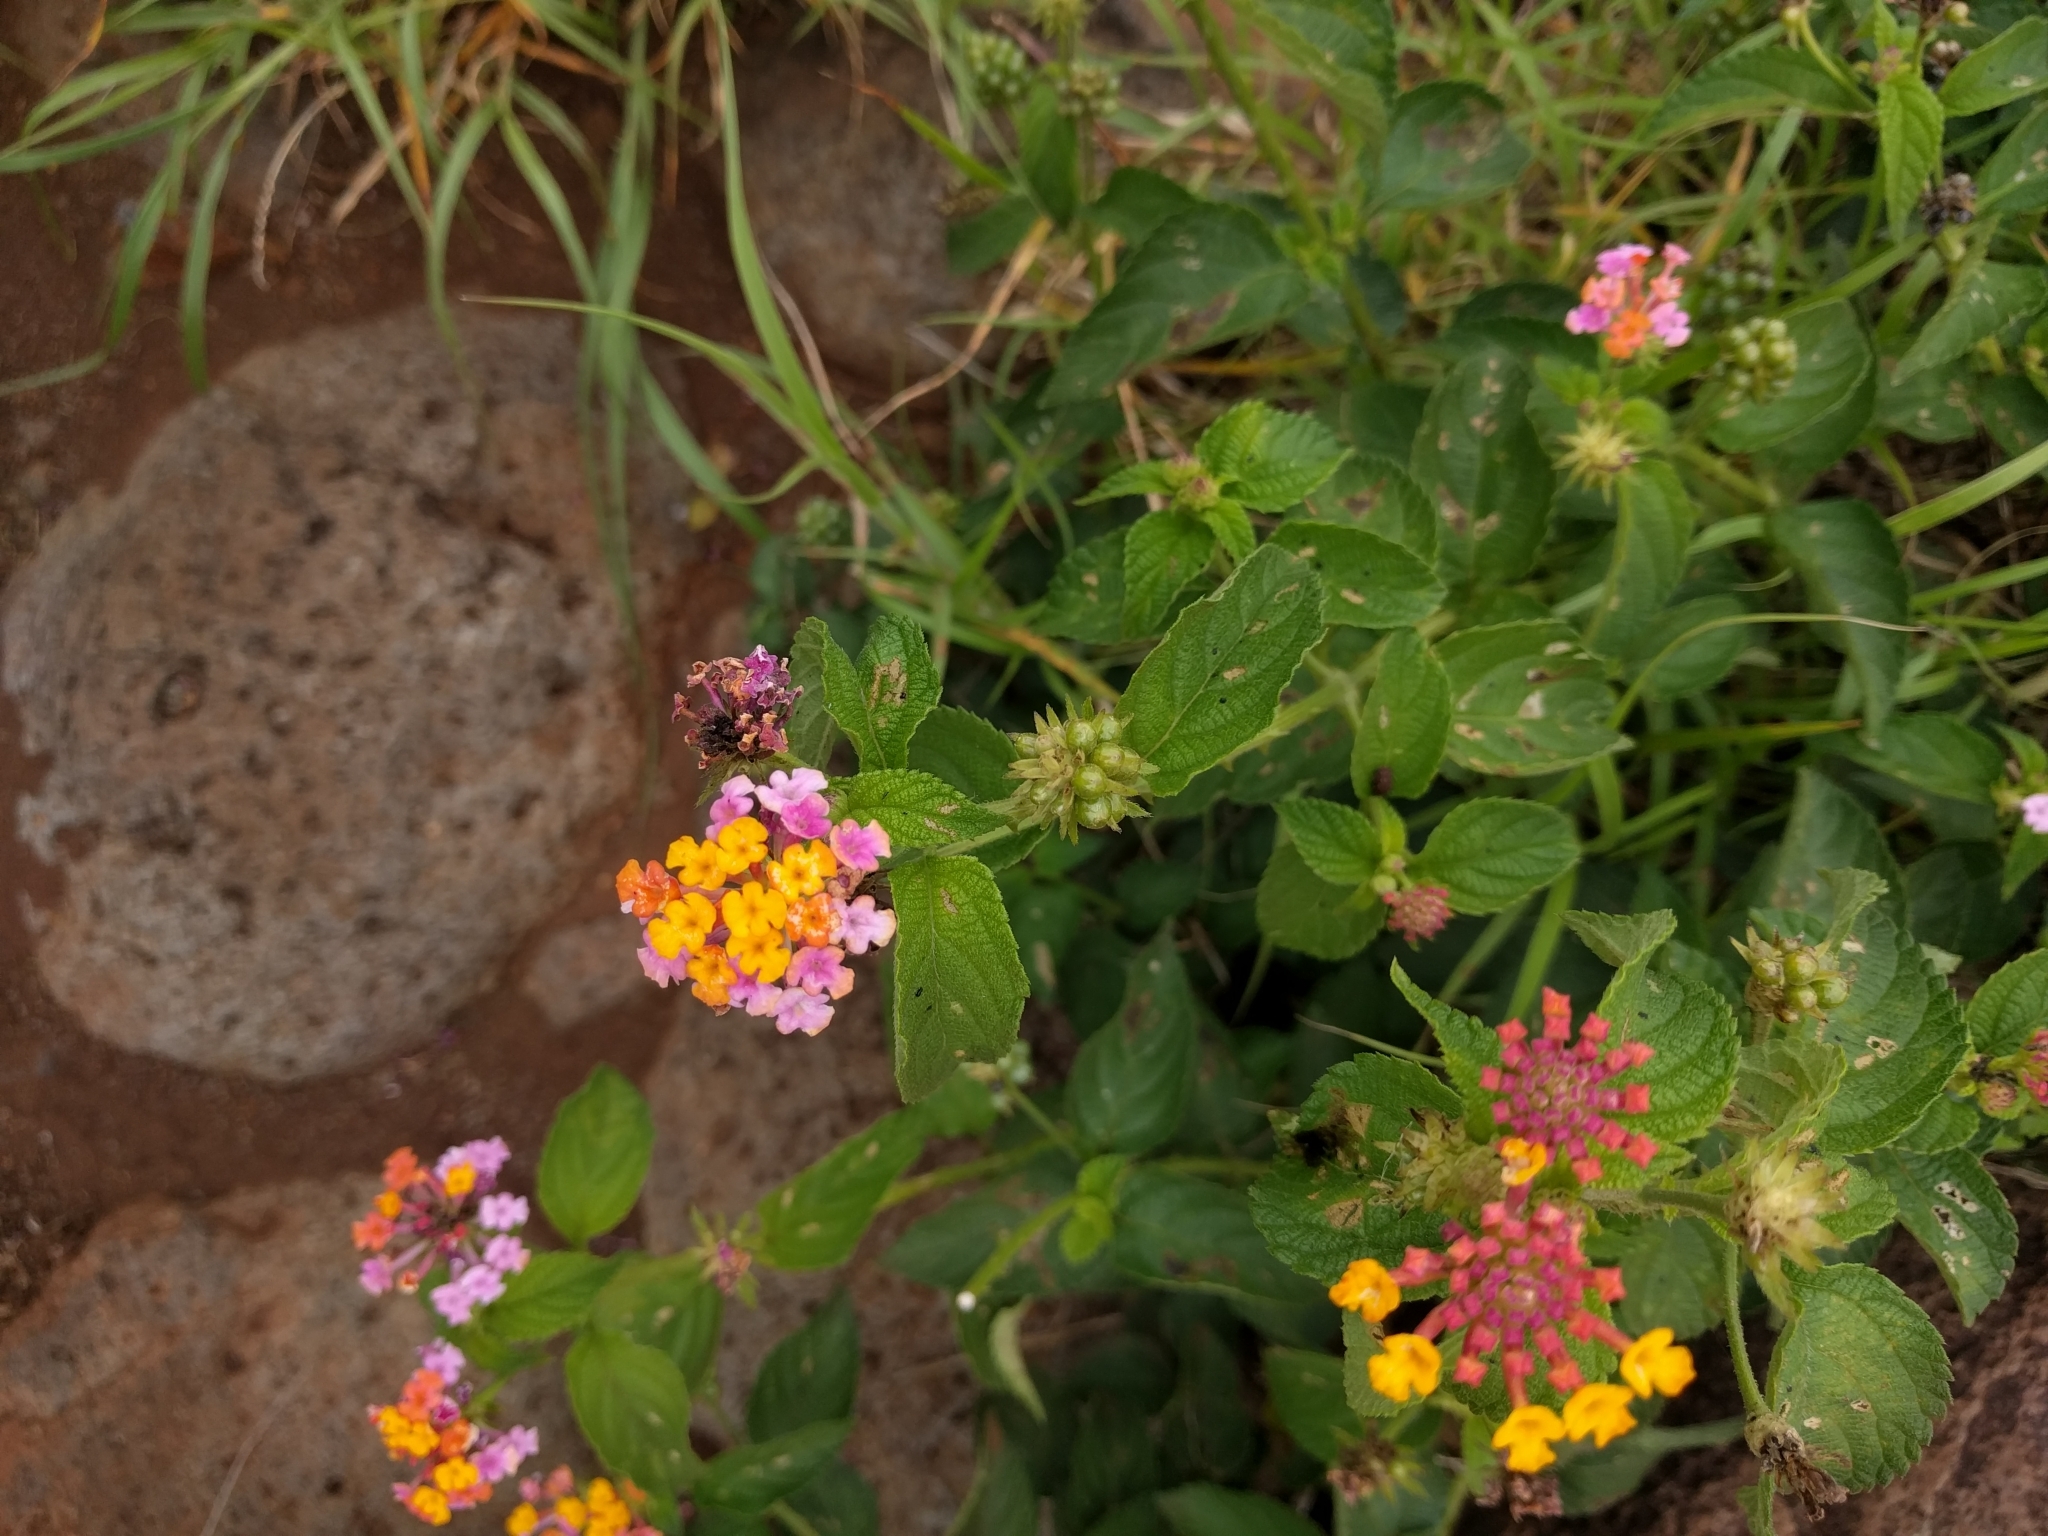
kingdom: Plantae
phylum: Tracheophyta
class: Magnoliopsida
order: Lamiales
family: Verbenaceae
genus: Lantana
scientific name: Lantana camara
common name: Lantana
